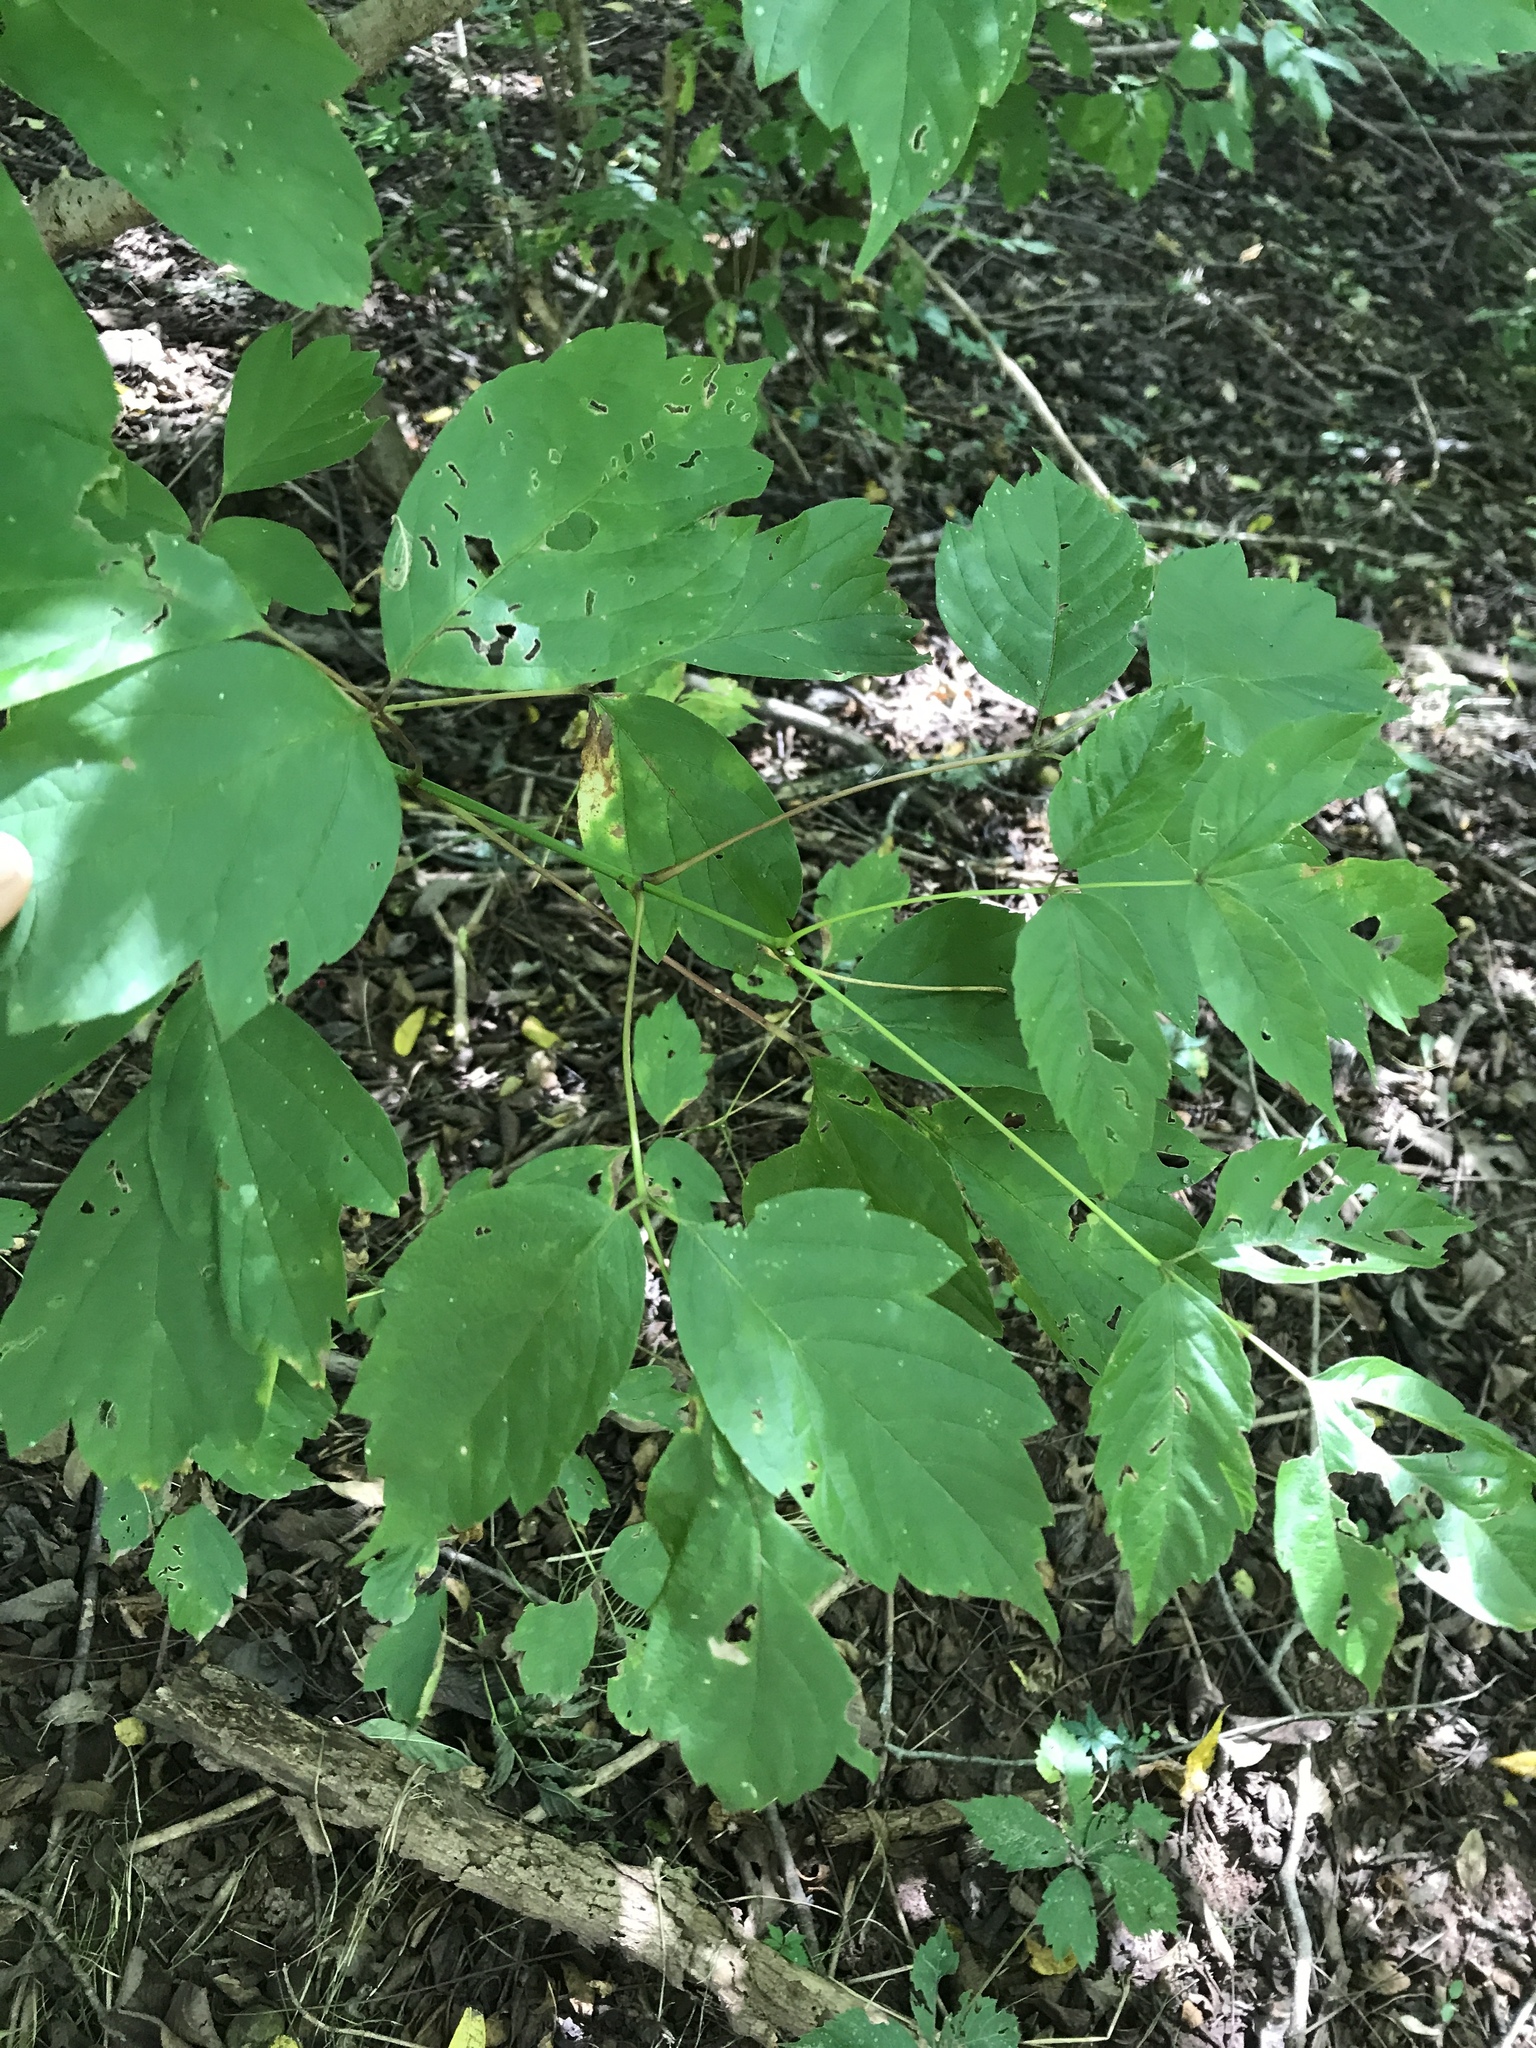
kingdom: Plantae
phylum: Tracheophyta
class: Magnoliopsida
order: Sapindales
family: Sapindaceae
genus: Acer
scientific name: Acer negundo
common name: Ashleaf maple
